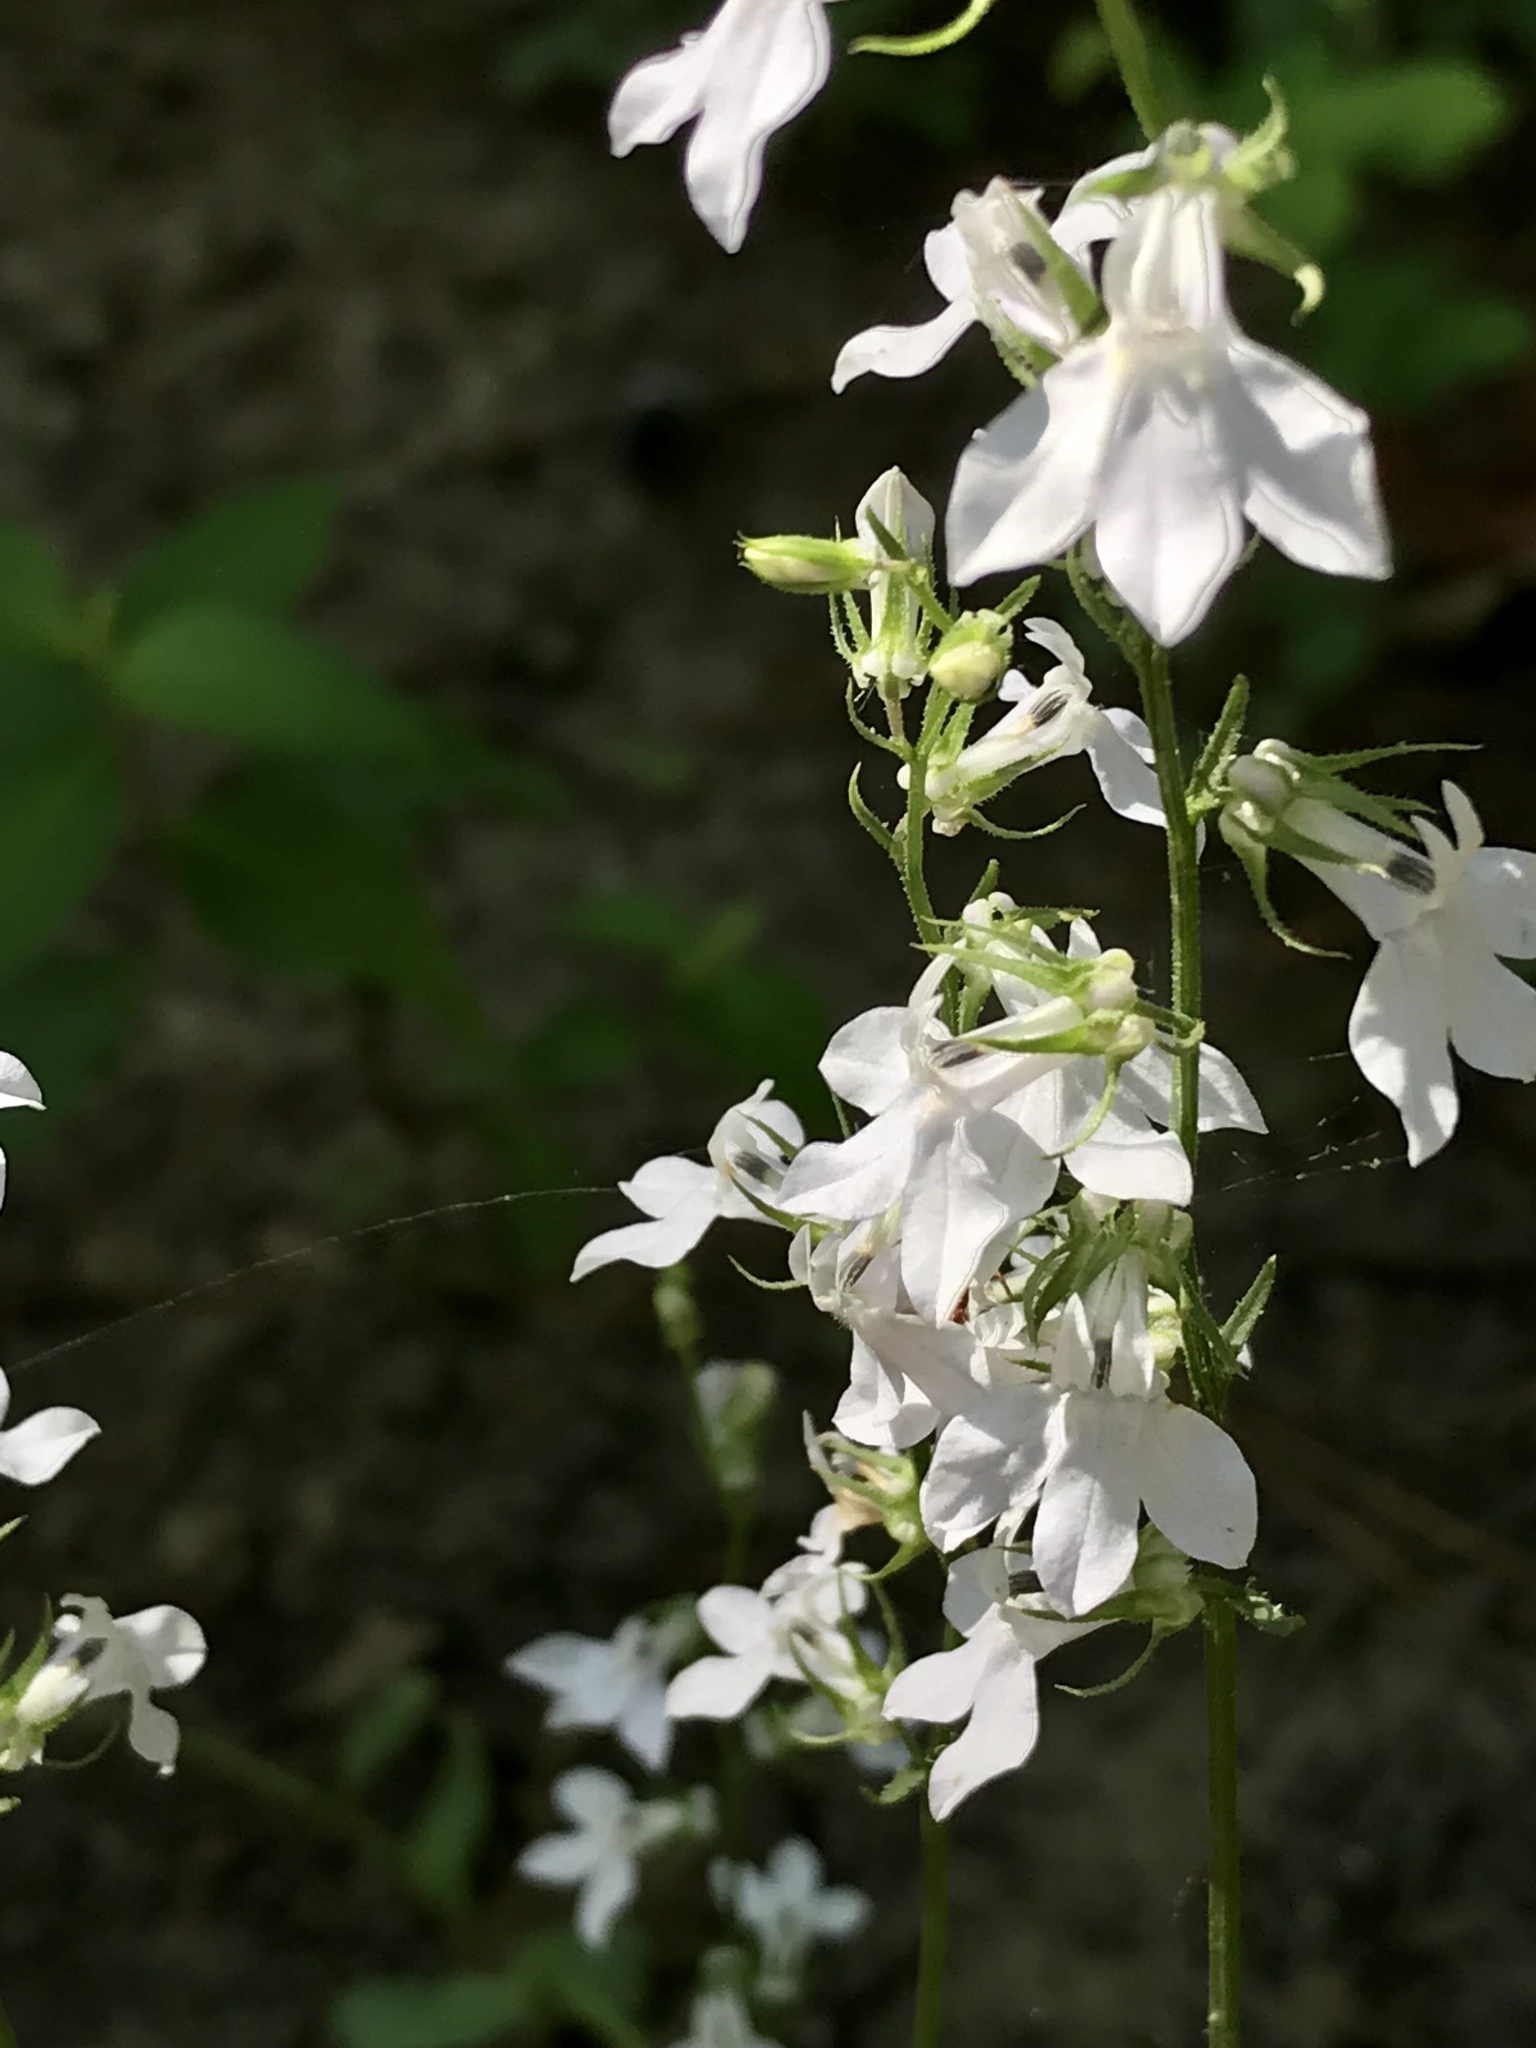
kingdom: Plantae
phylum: Tracheophyta
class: Magnoliopsida
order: Asterales
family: Campanulaceae
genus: Lobelia
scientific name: Lobelia appendiculata
